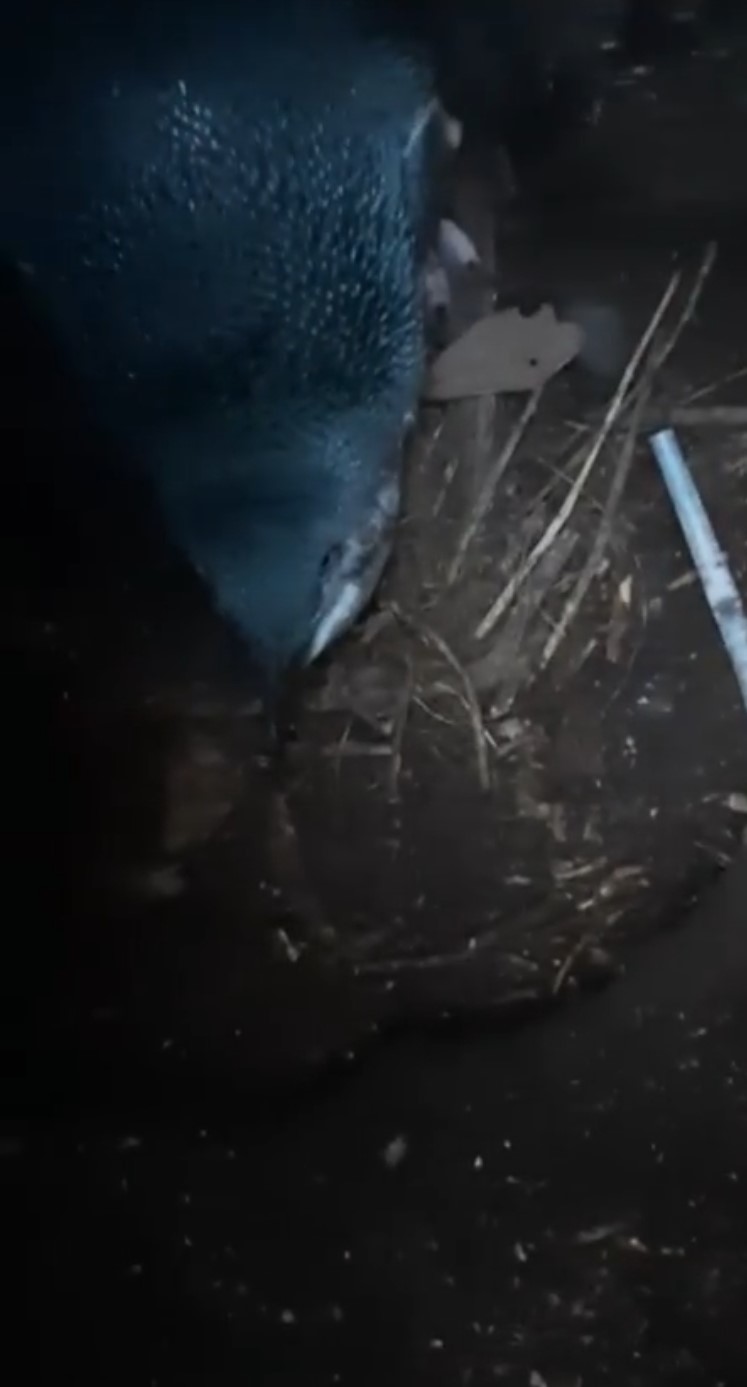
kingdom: Animalia
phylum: Chordata
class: Aves
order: Sphenisciformes
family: Spheniscidae
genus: Eudyptula
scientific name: Eudyptula minor
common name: Little penguin
